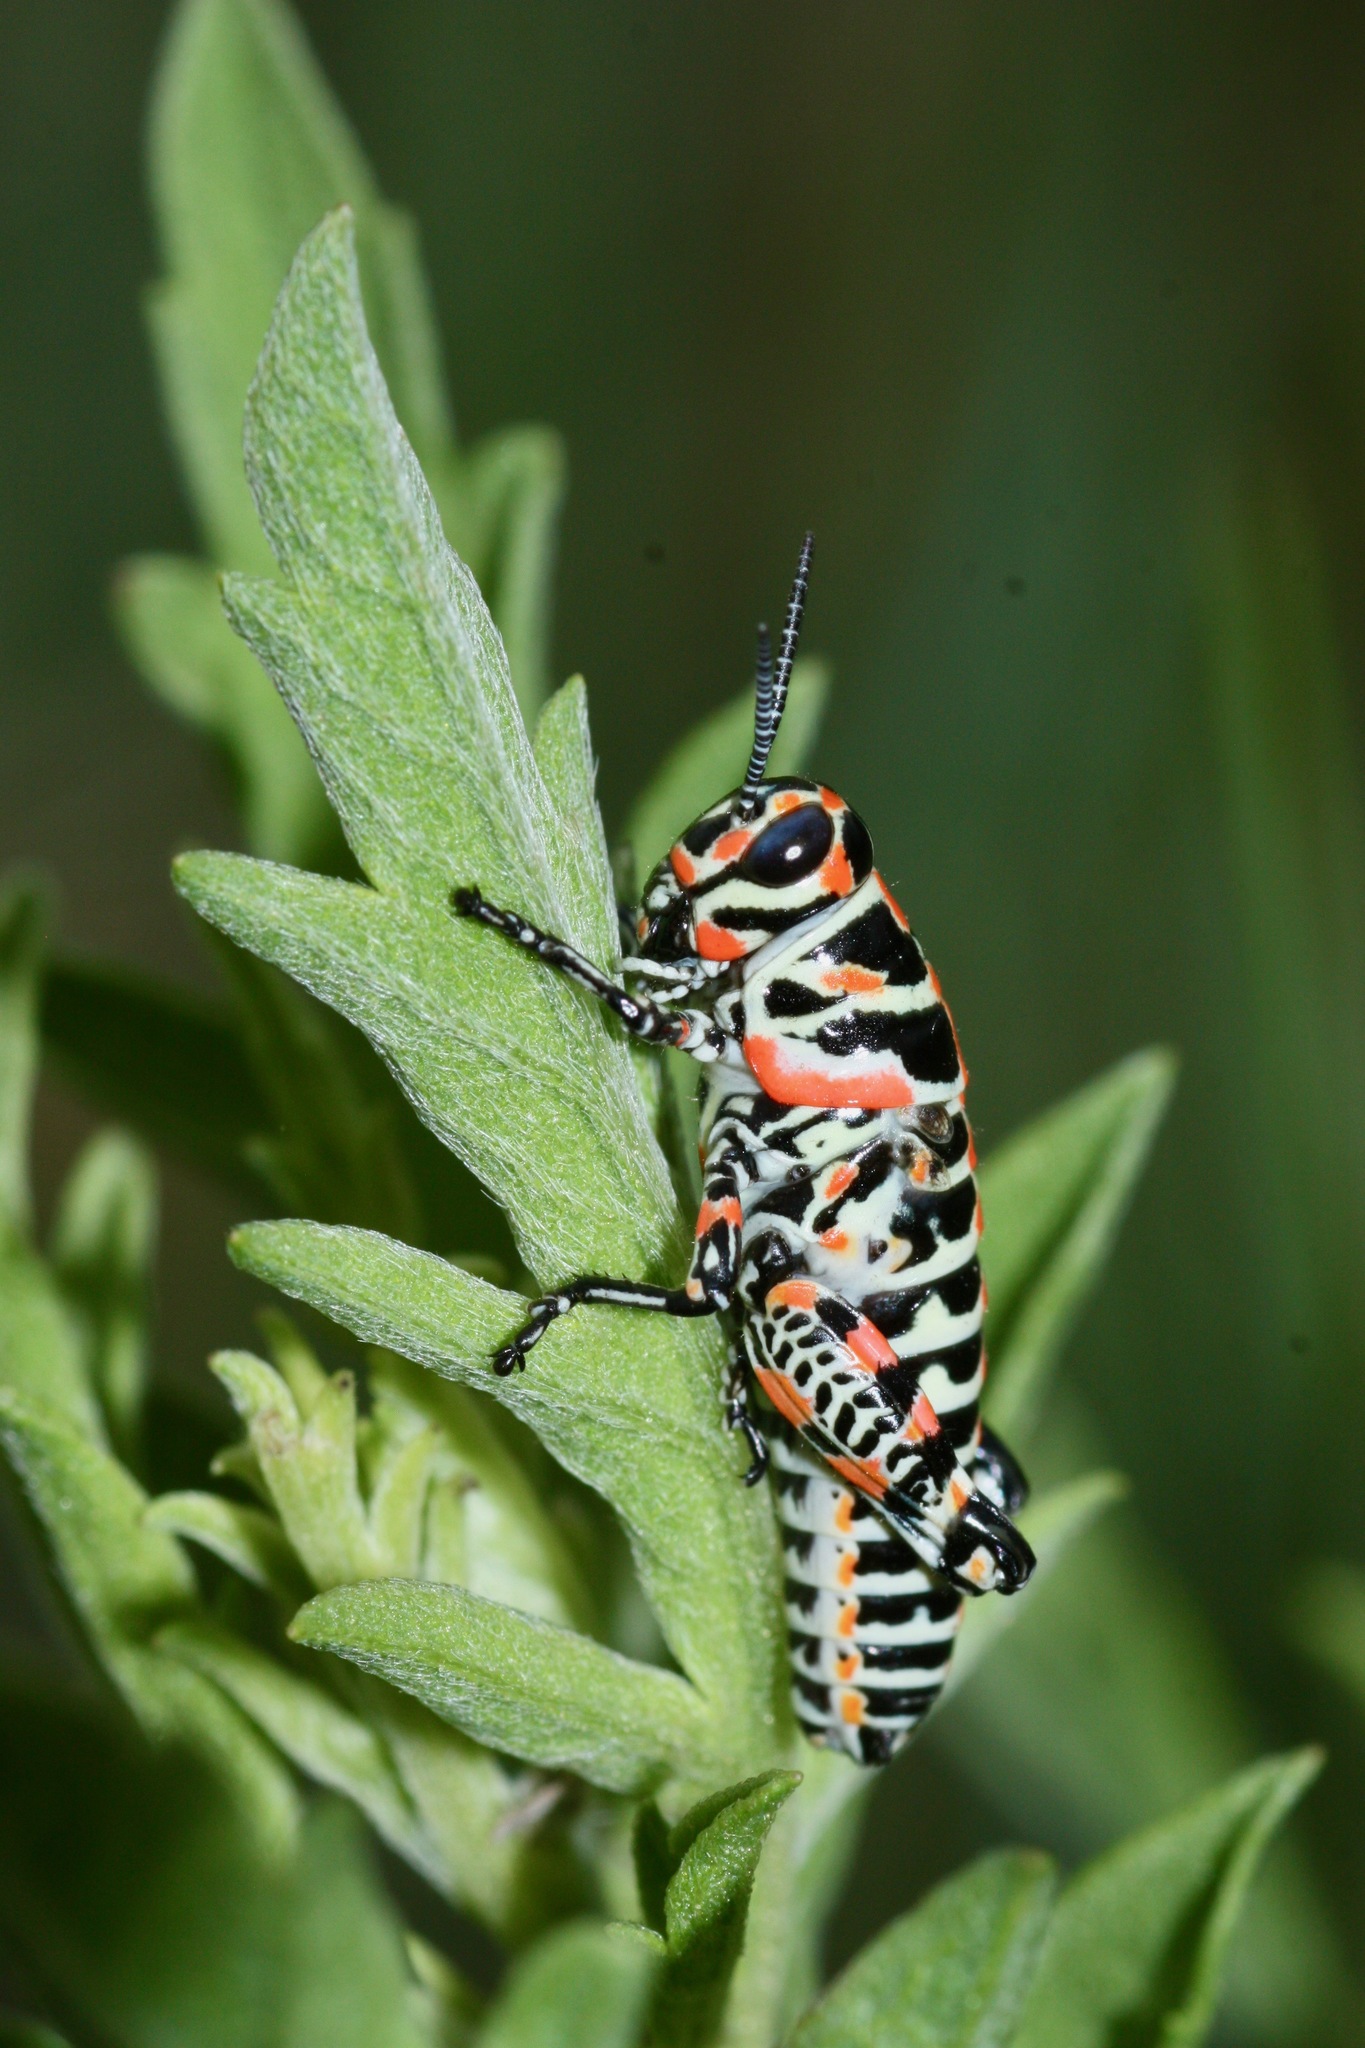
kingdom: Animalia
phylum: Arthropoda
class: Insecta
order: Orthoptera
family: Acrididae
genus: Dactylotum
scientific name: Dactylotum bicolor
